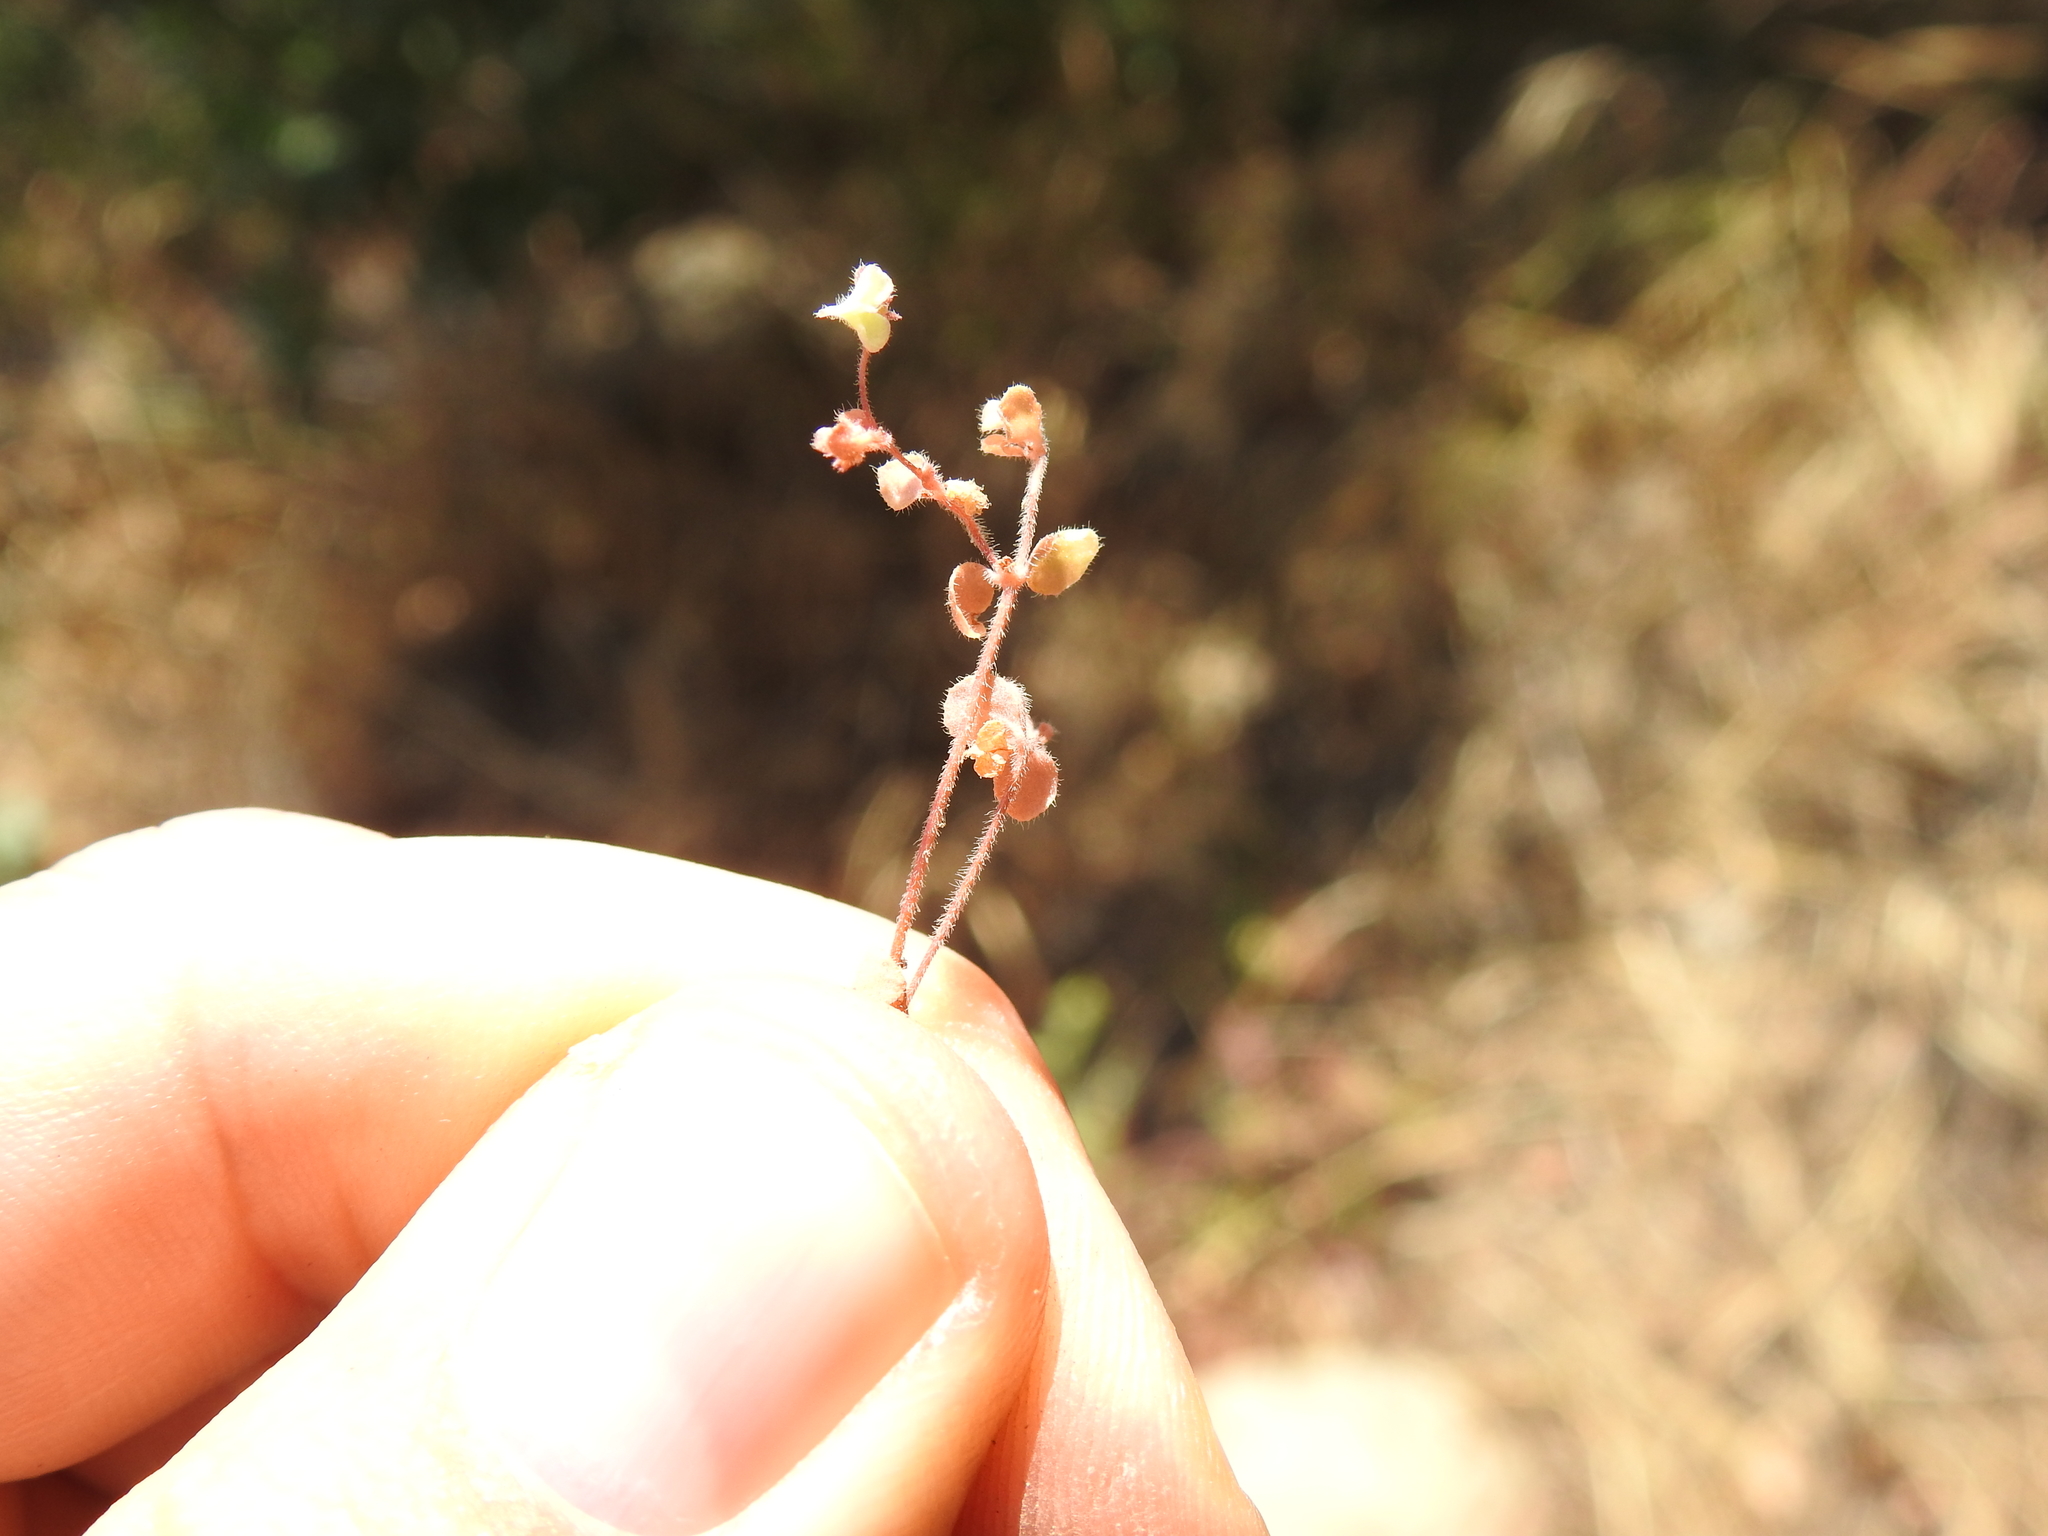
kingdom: Plantae
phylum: Tracheophyta
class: Magnoliopsida
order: Caryophyllales
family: Polygonaceae
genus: Pterostegia
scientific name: Pterostegia drymarioides
